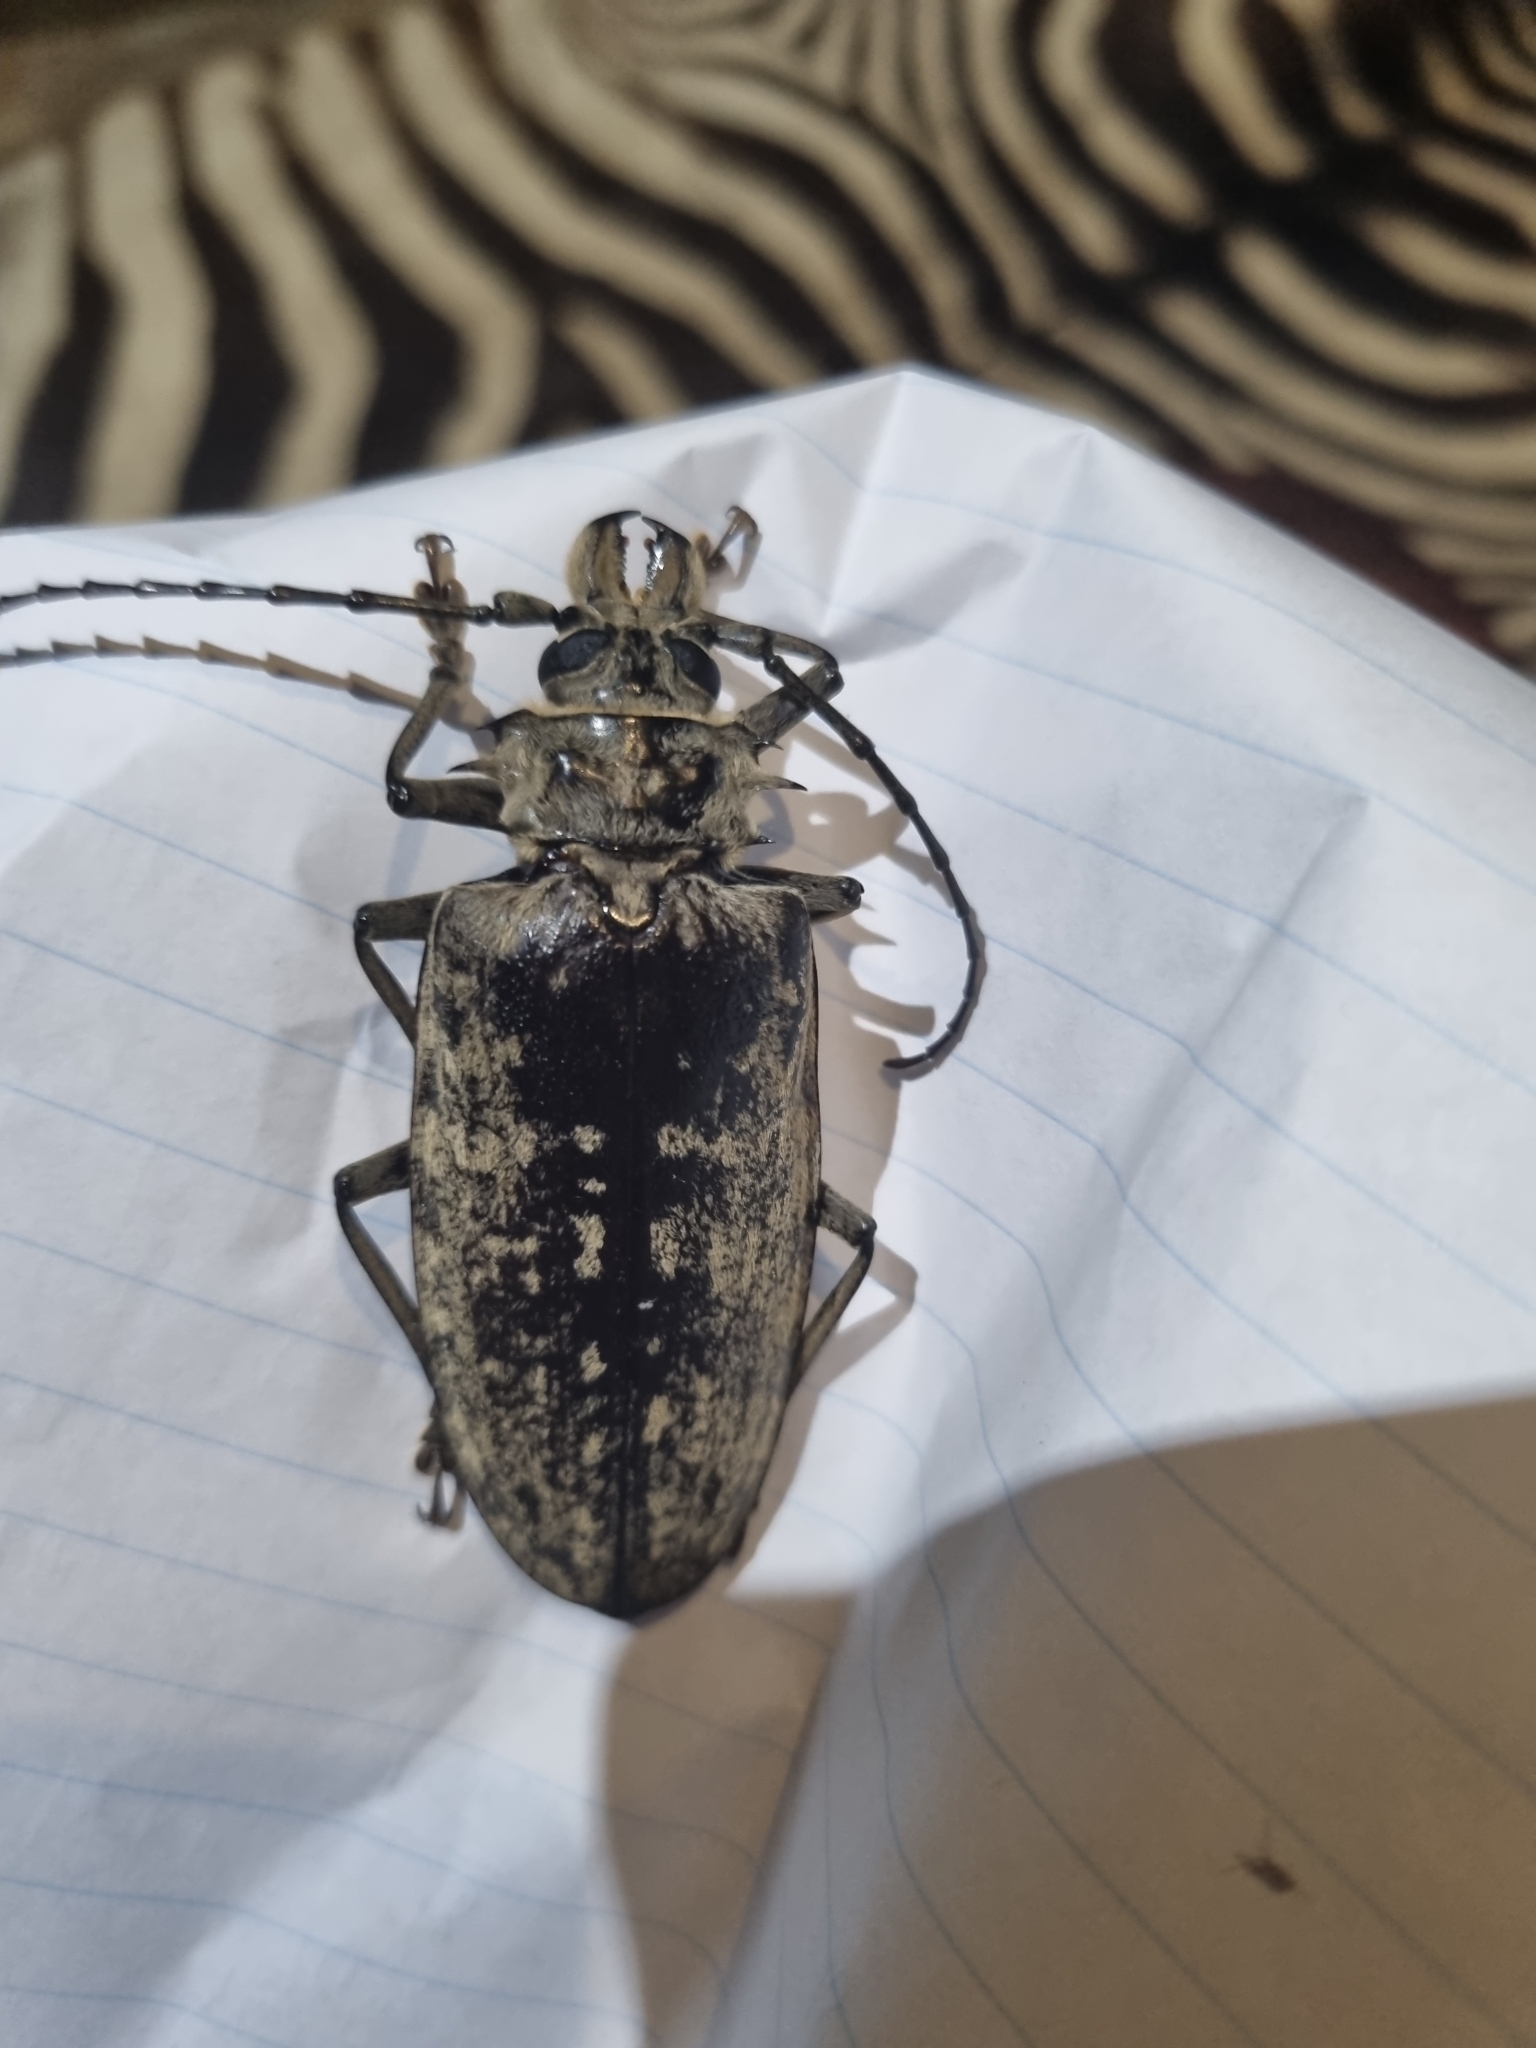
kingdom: Animalia
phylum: Arthropoda
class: Insecta
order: Coleoptera
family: Cerambycidae
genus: Tithoes
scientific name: Tithoes confinis
